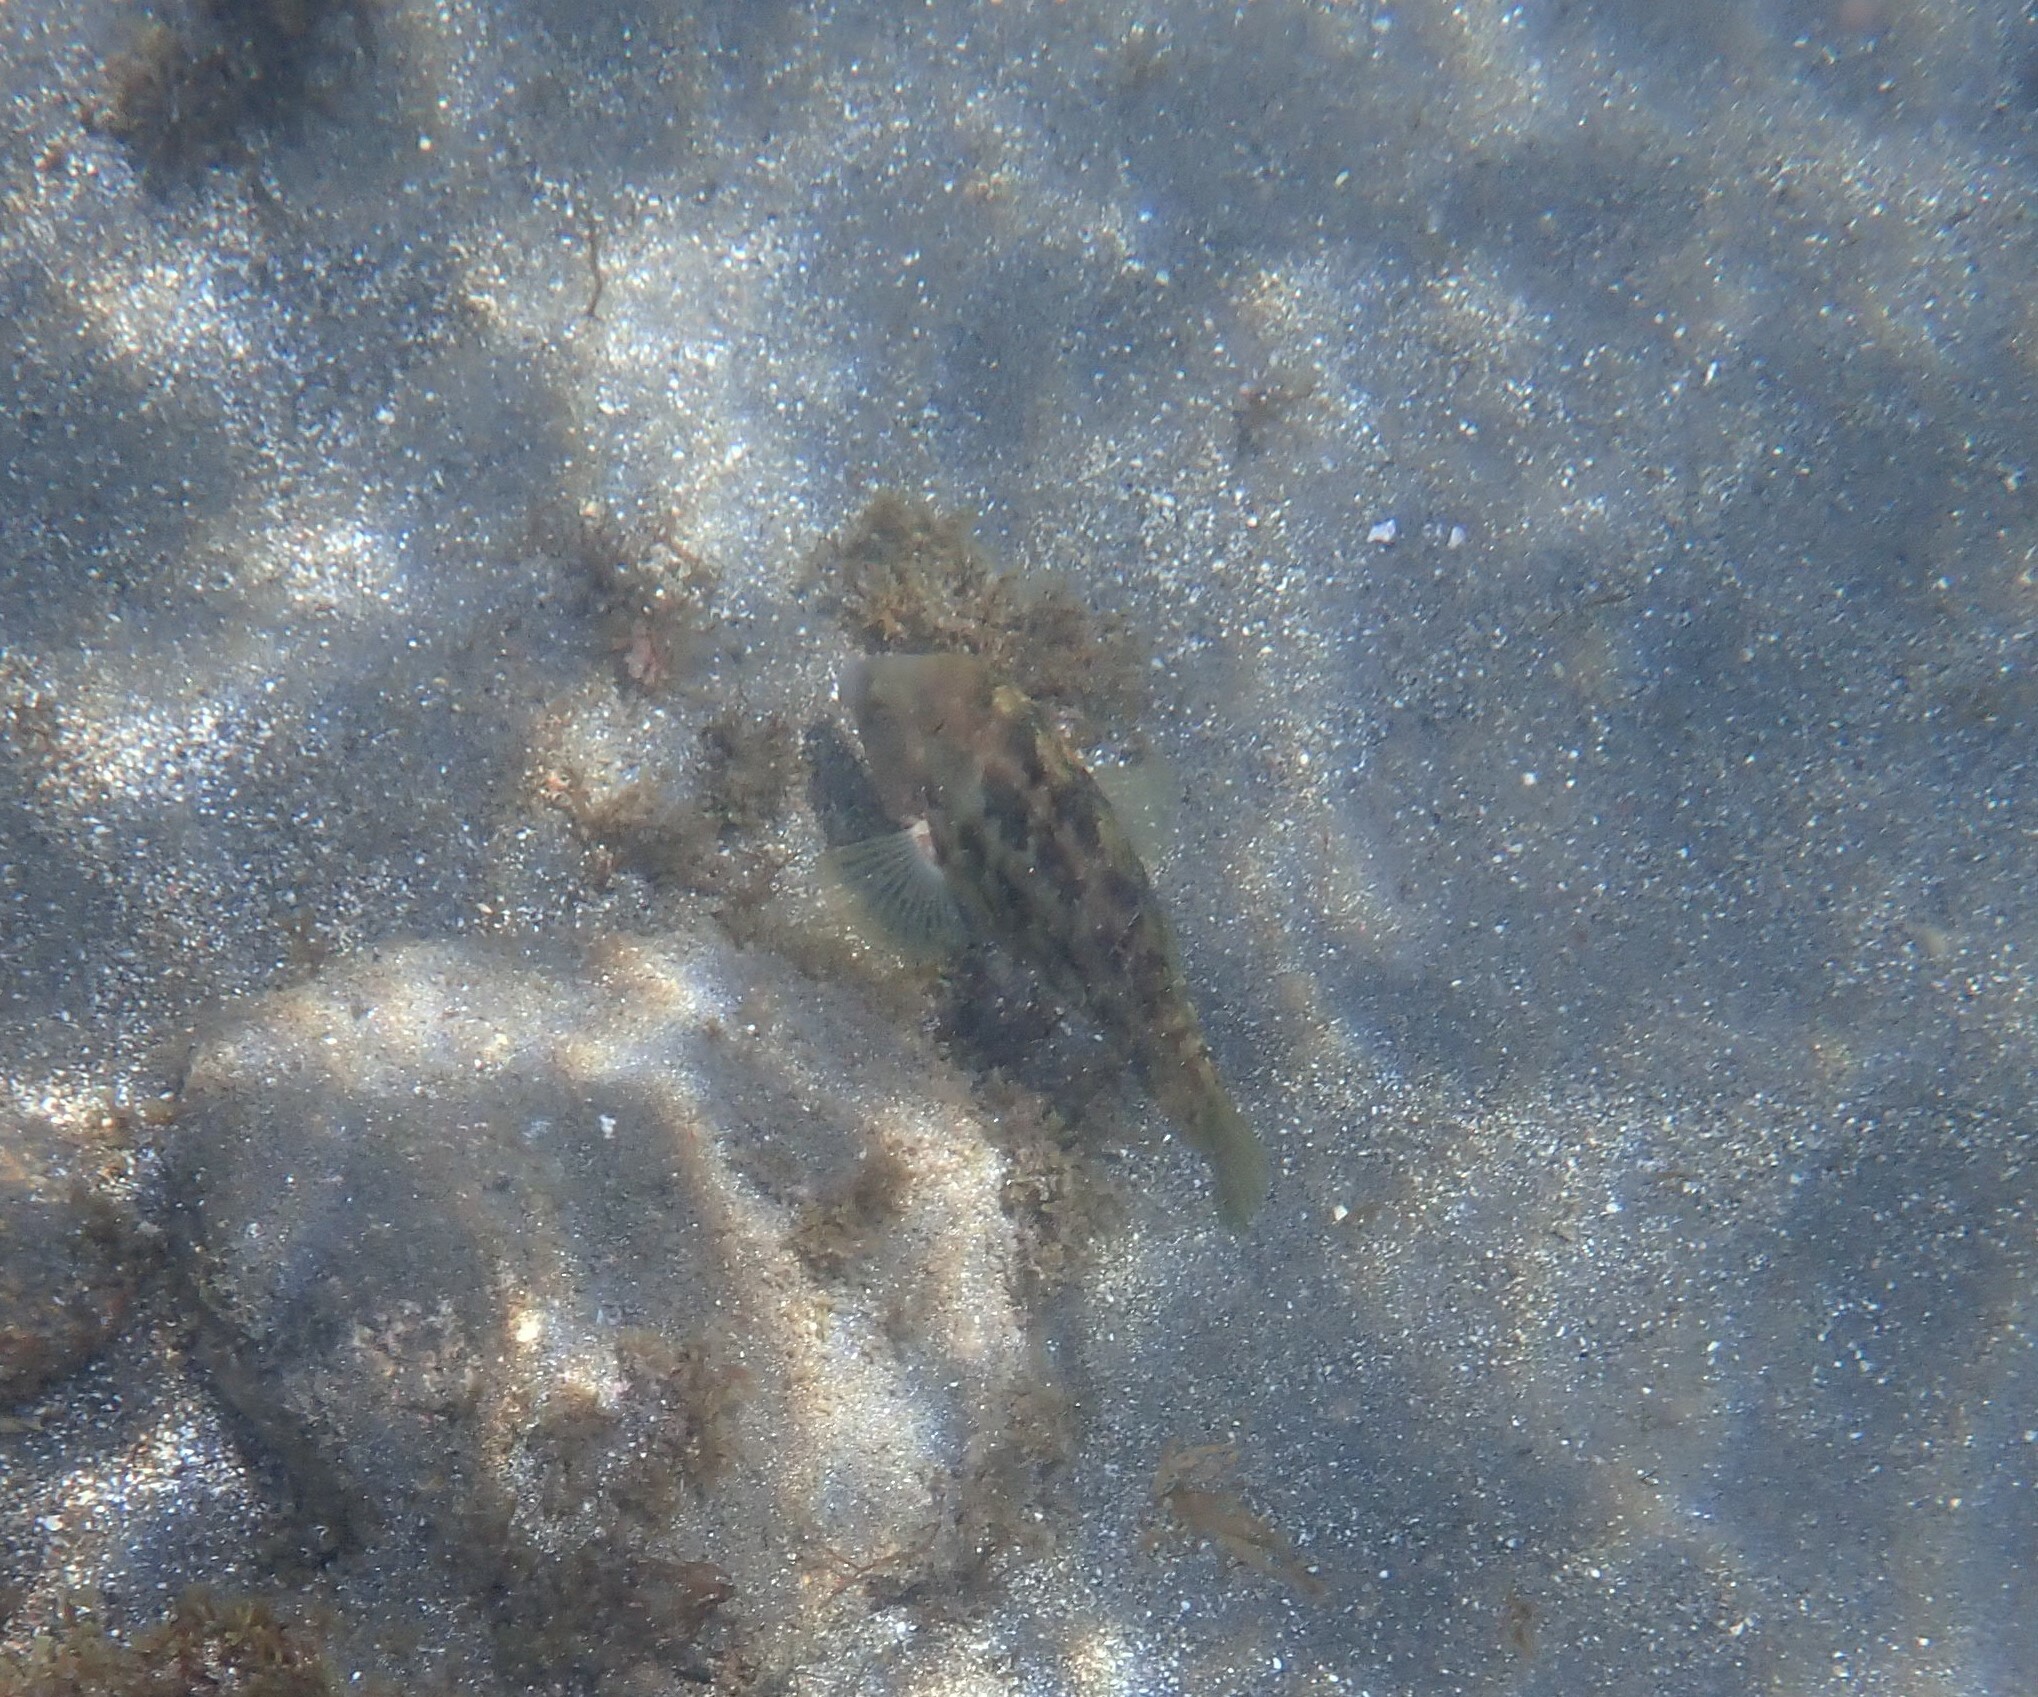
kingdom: Animalia
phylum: Chordata
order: Perciformes
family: Labridae
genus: Symphodus
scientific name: Symphodus caeruleus
